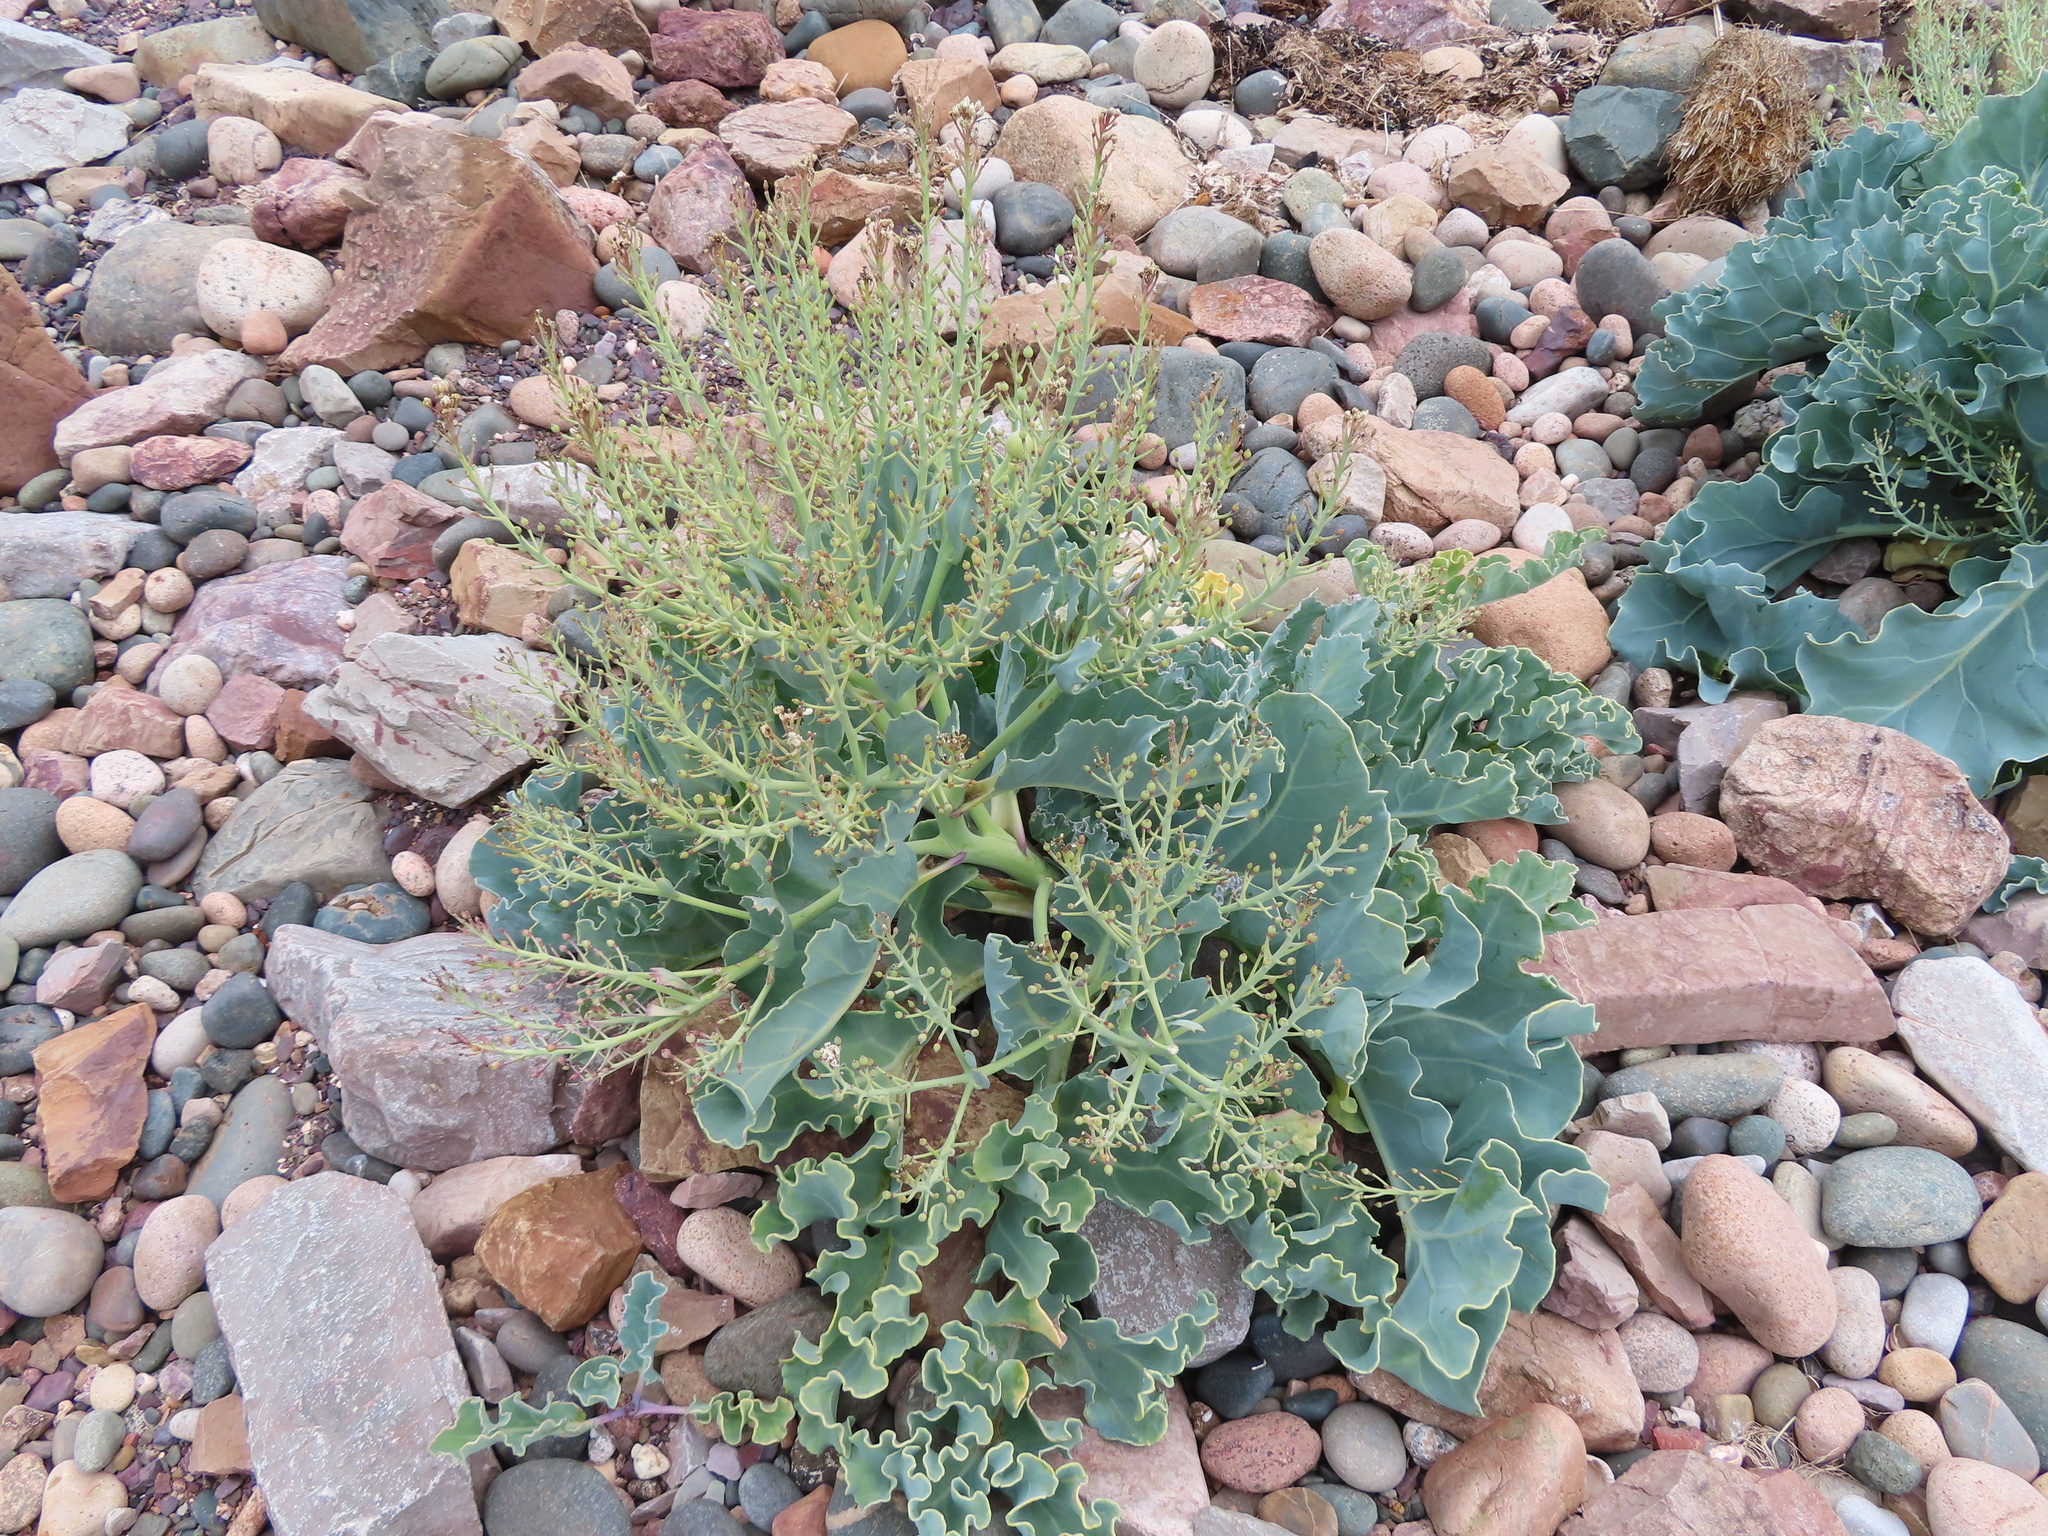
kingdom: Plantae
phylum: Tracheophyta
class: Magnoliopsida
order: Brassicales
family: Brassicaceae
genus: Crambe
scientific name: Crambe maritima
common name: Sea-kale
